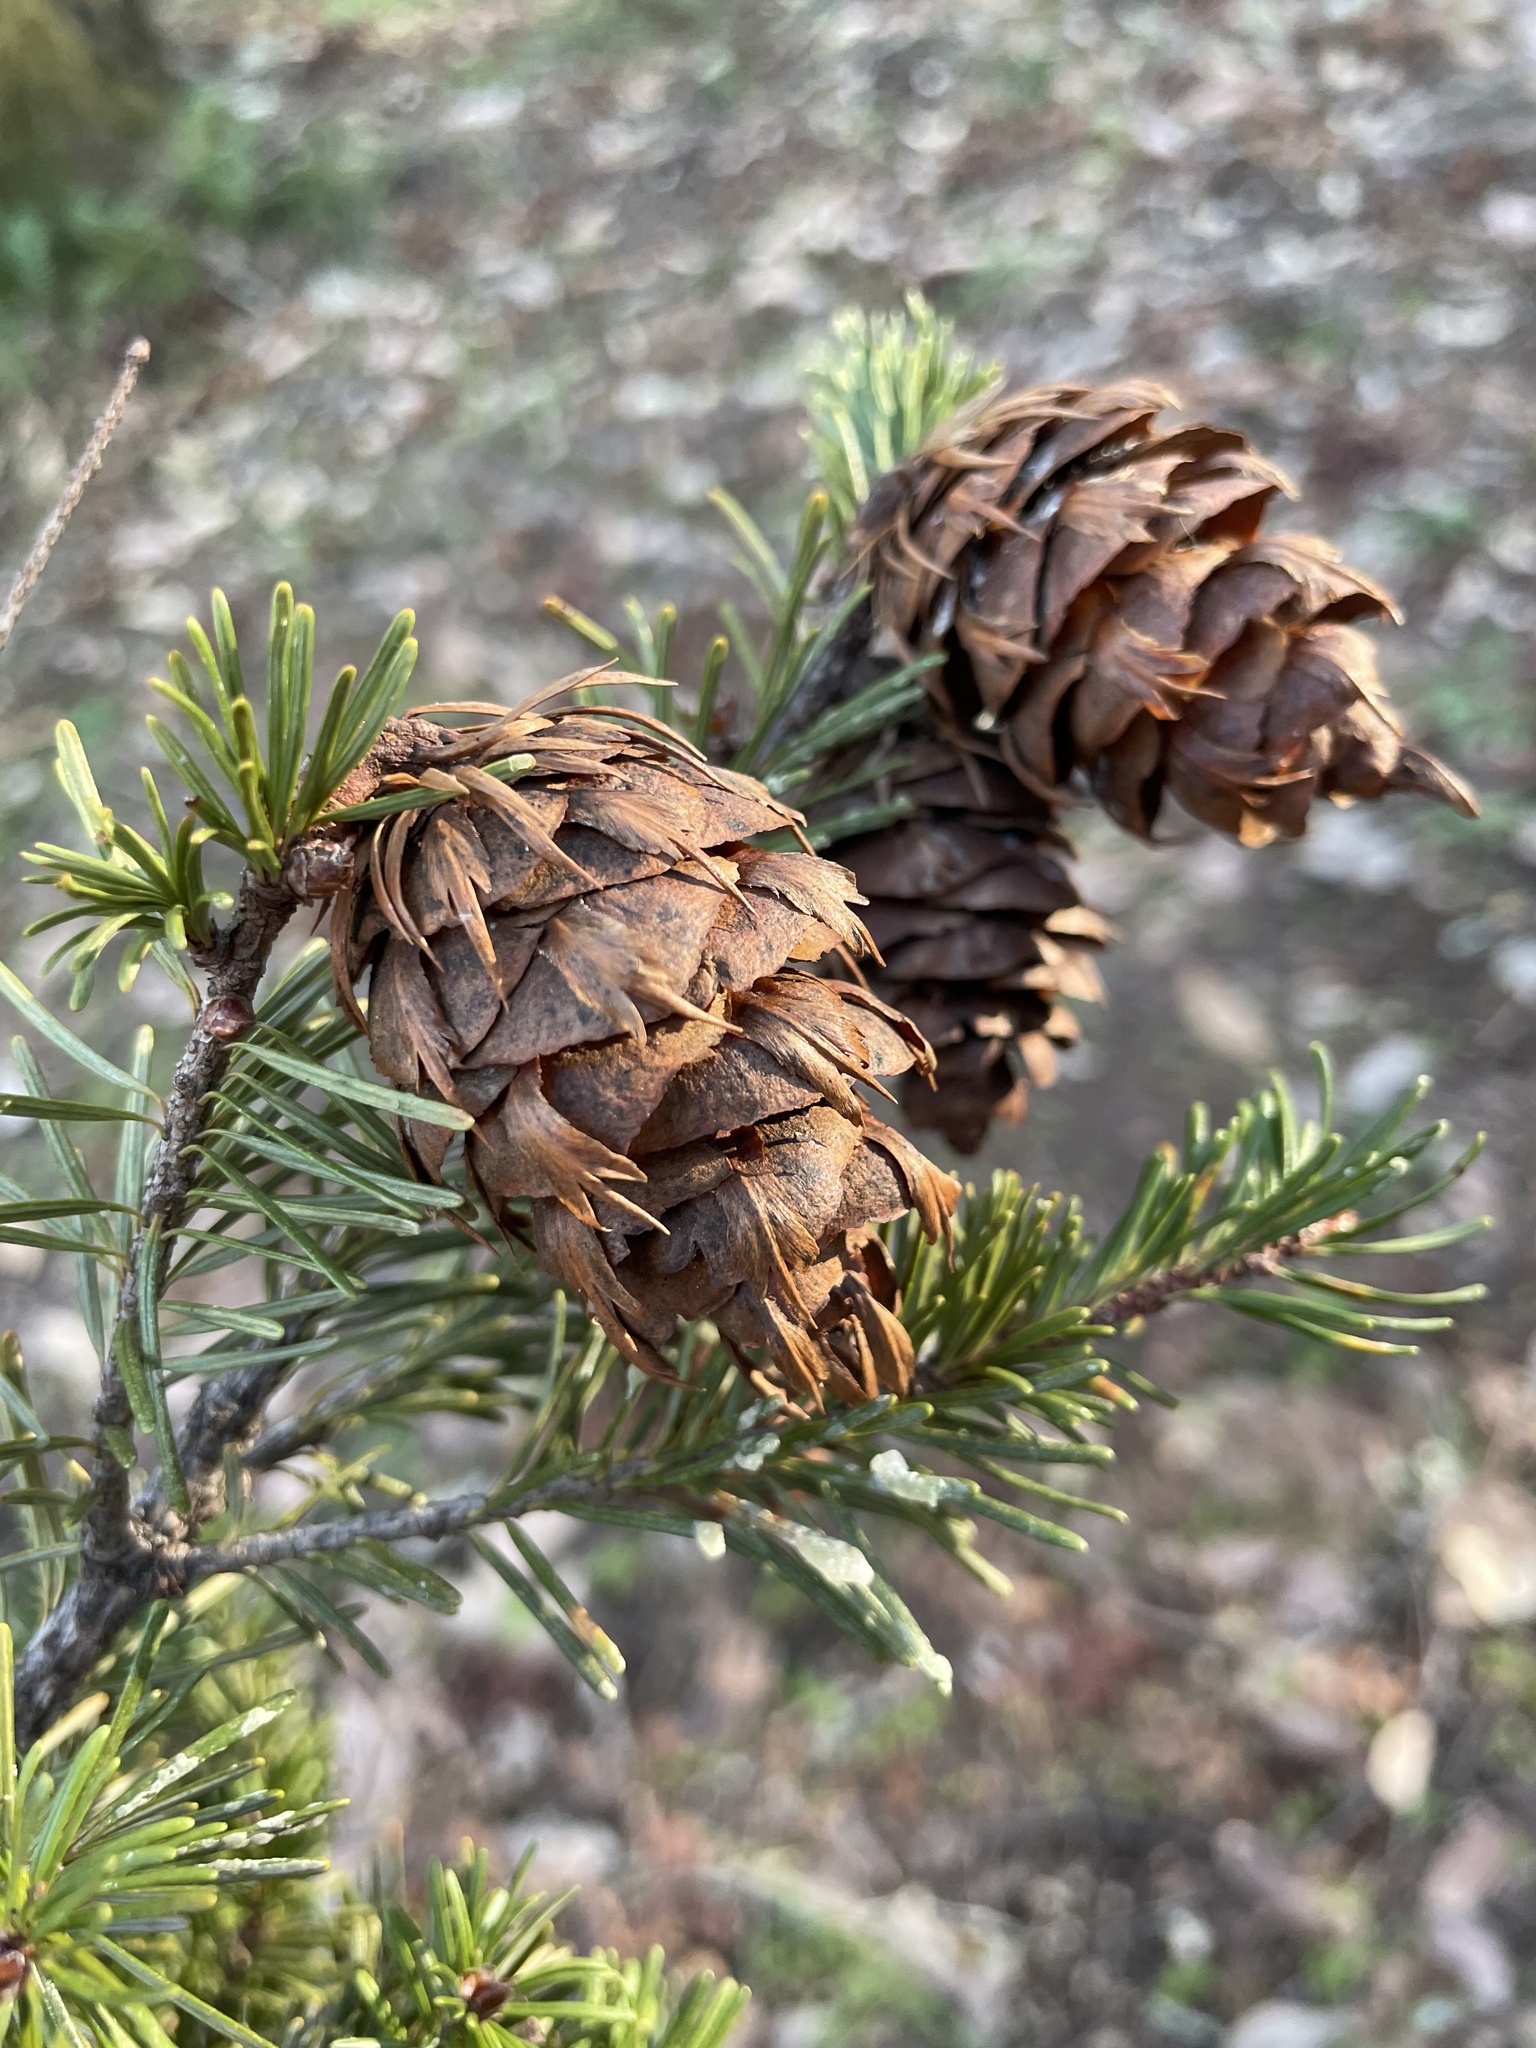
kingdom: Plantae
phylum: Tracheophyta
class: Pinopsida
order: Pinales
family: Pinaceae
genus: Pseudotsuga
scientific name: Pseudotsuga menziesii
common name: Douglas fir
